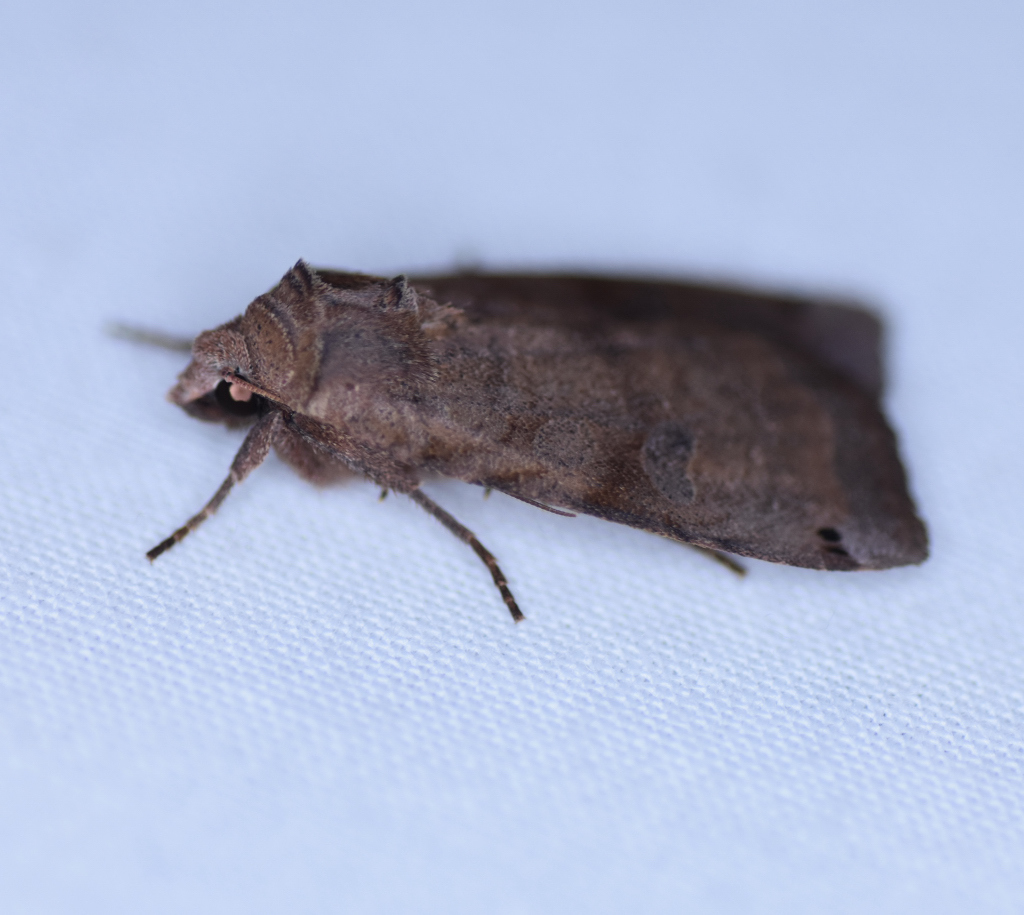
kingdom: Animalia
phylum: Arthropoda
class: Insecta
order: Lepidoptera
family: Noctuidae
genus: Xestia
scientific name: Xestia smithii
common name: Smith's dart
